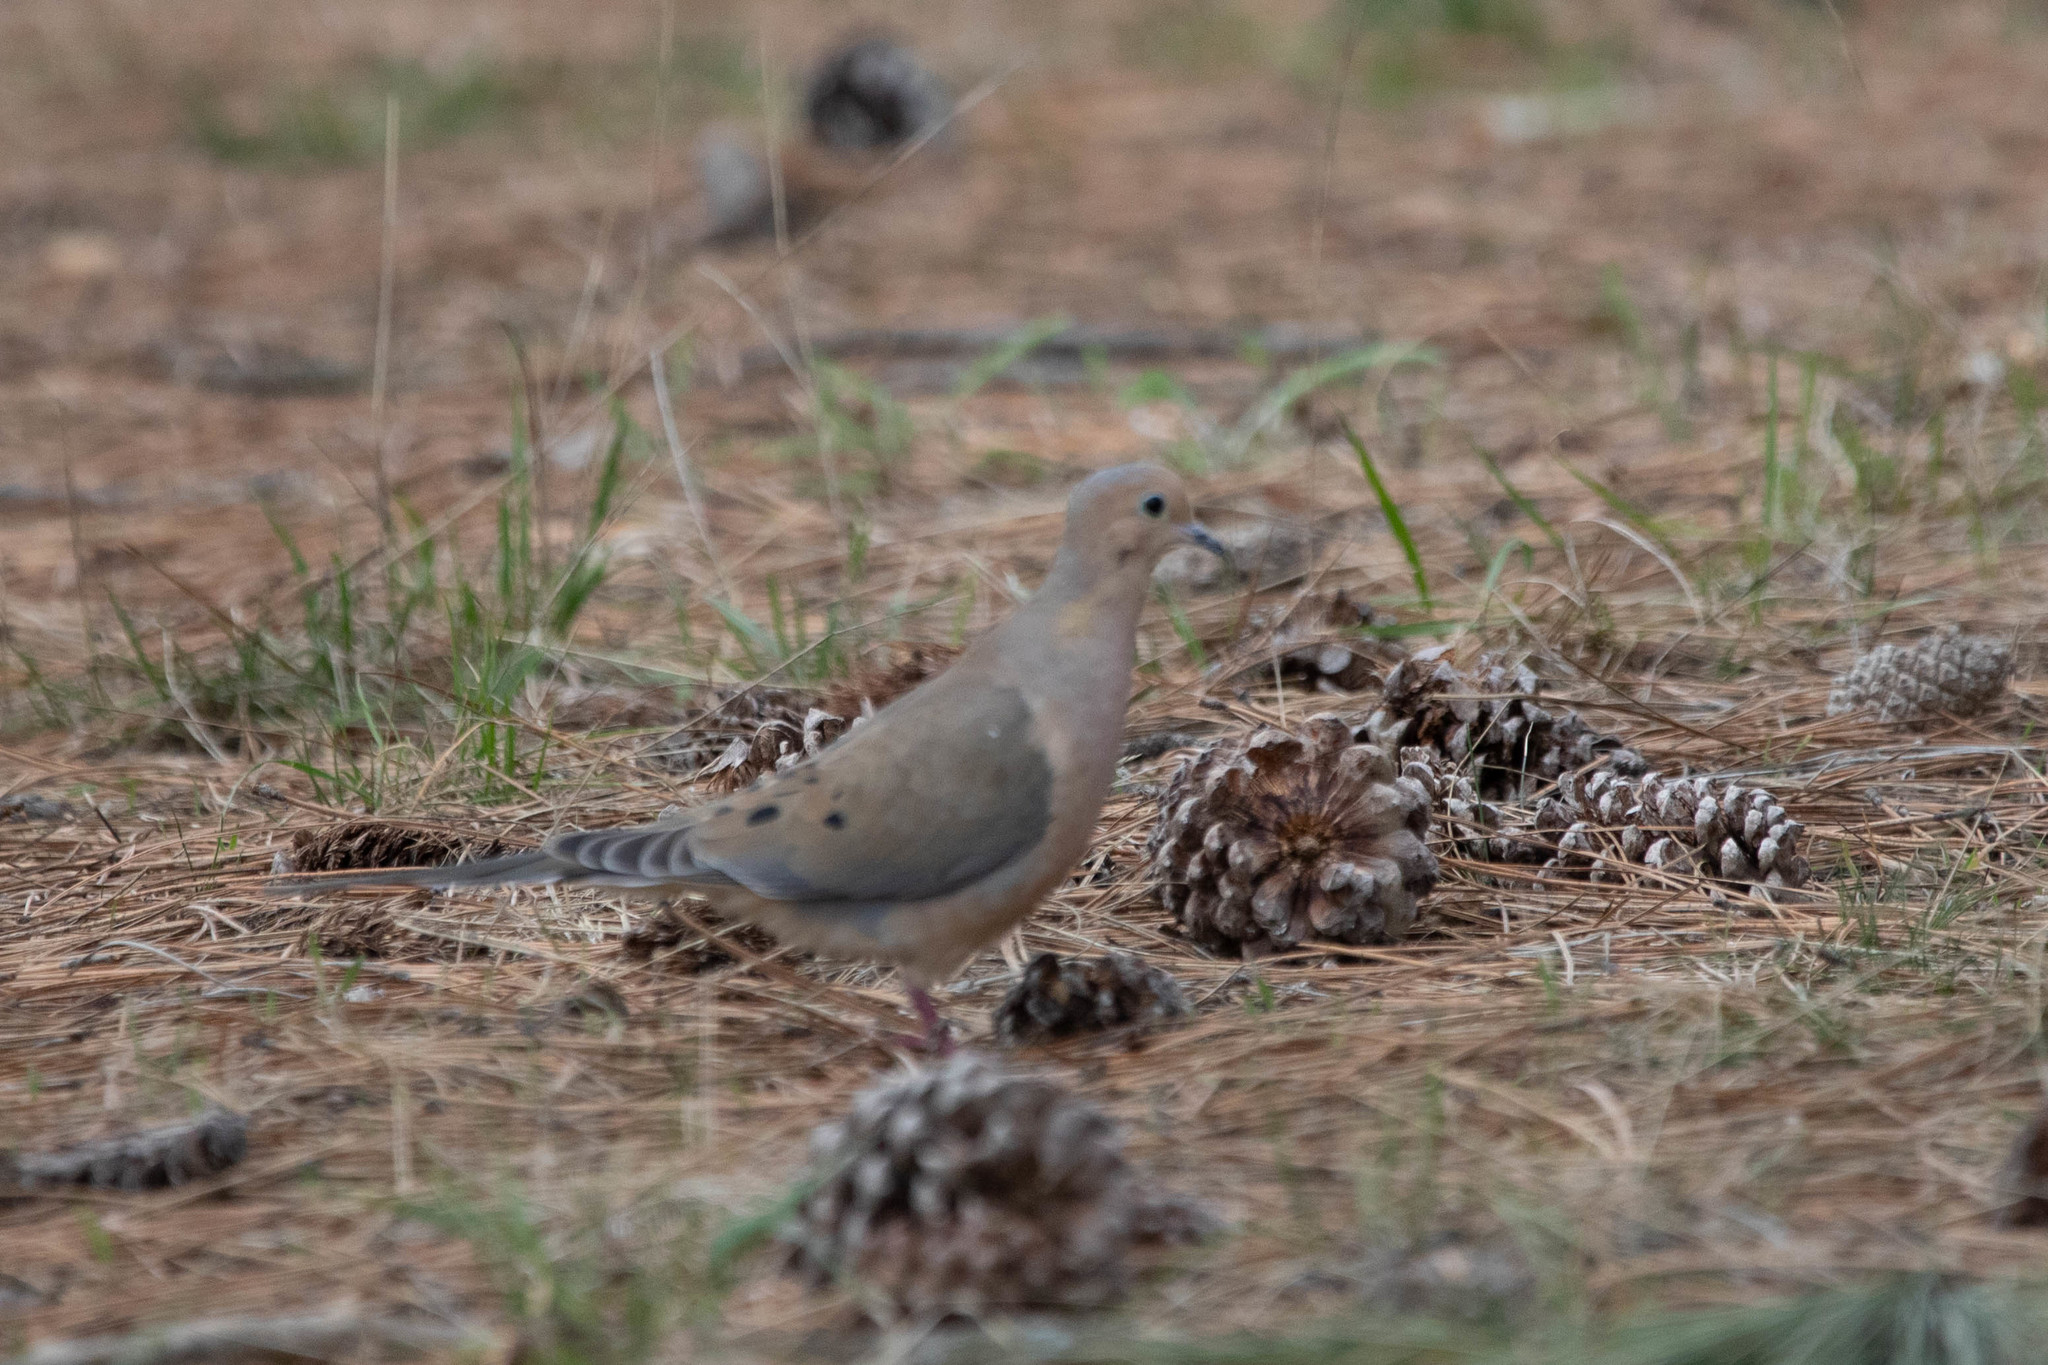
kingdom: Animalia
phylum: Chordata
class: Aves
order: Columbiformes
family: Columbidae
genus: Zenaida
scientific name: Zenaida macroura
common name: Mourning dove
